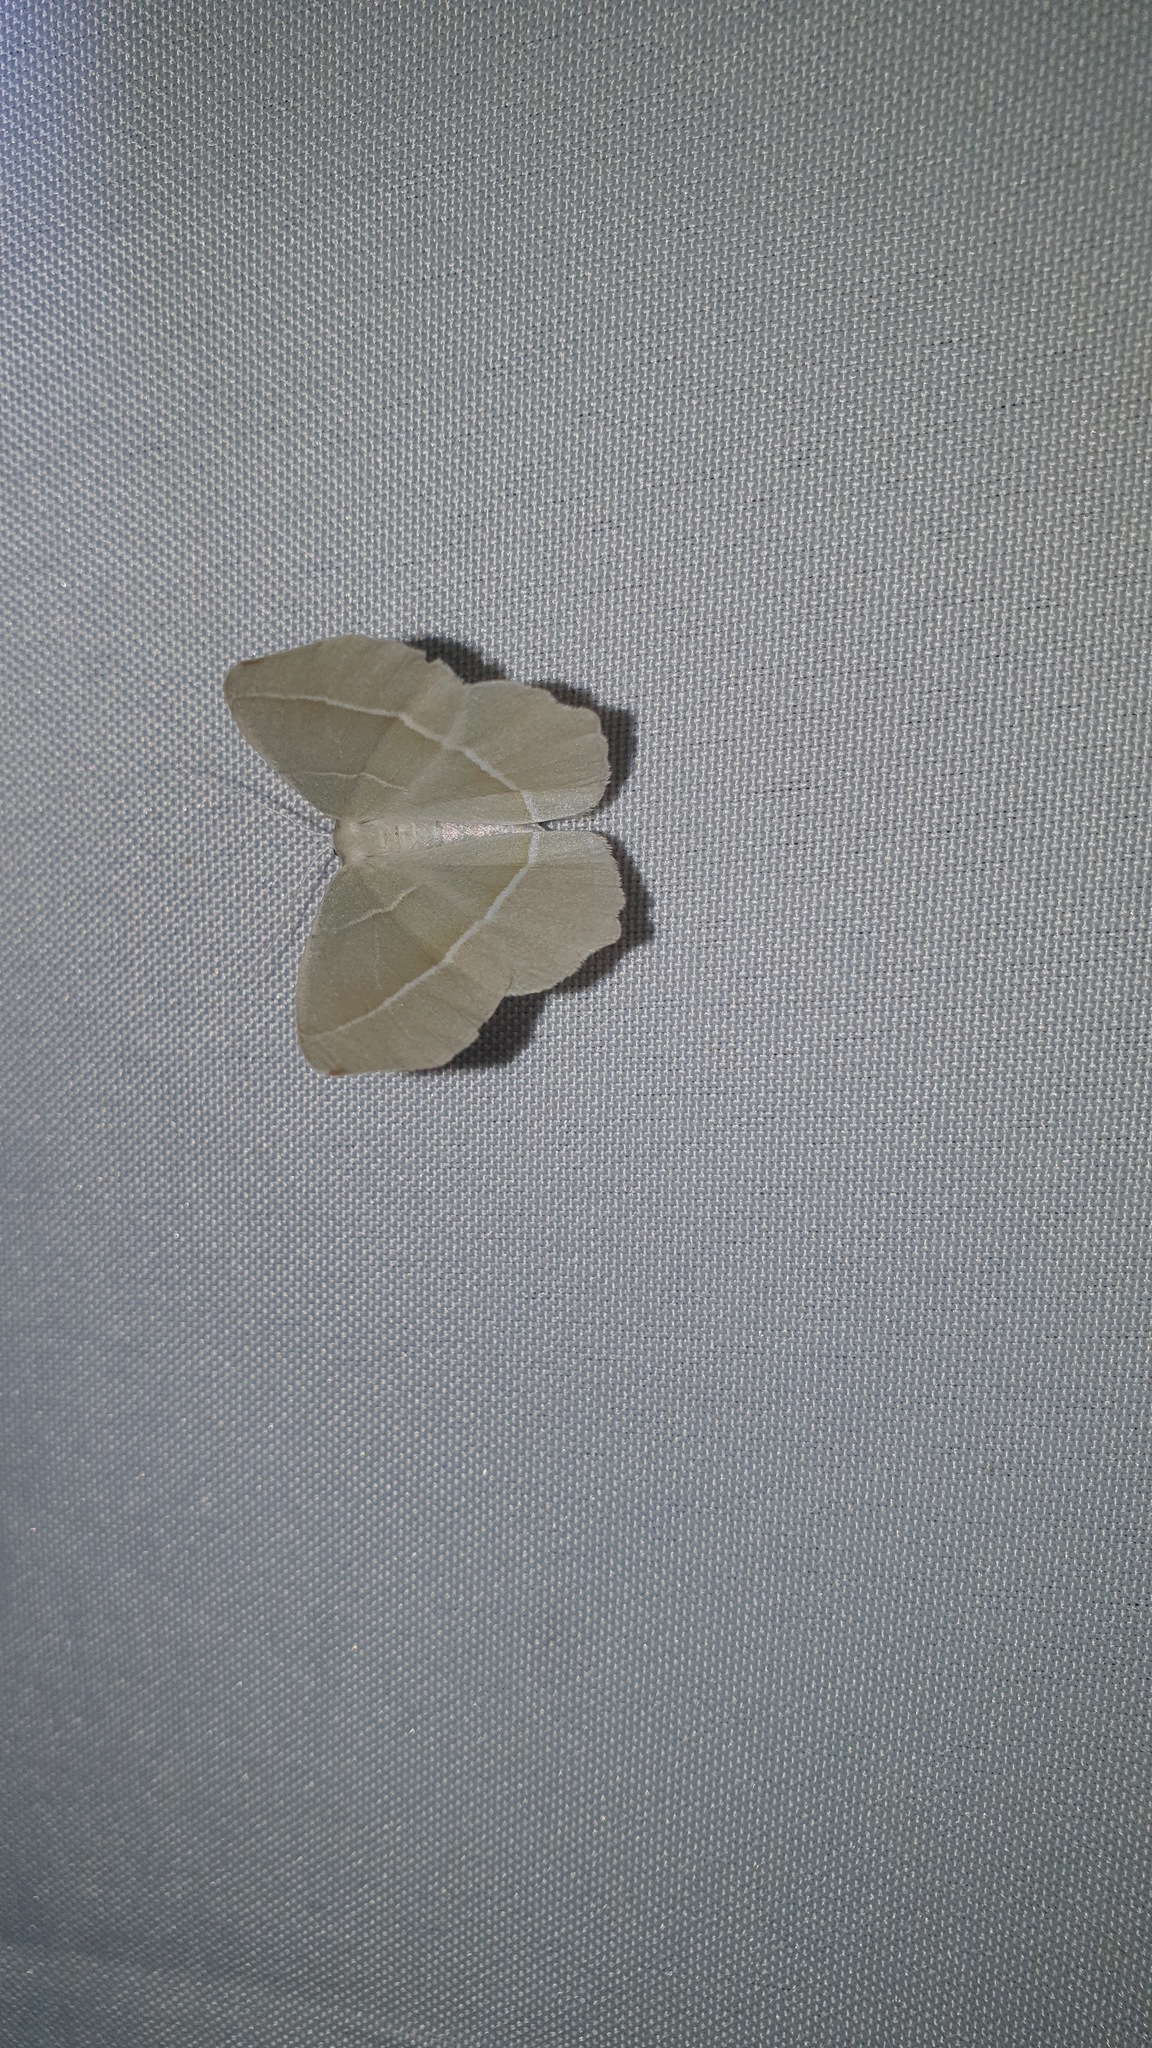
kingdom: Animalia
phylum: Arthropoda
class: Insecta
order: Lepidoptera
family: Geometridae
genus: Campaea
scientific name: Campaea margaritaria
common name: Light emerald
